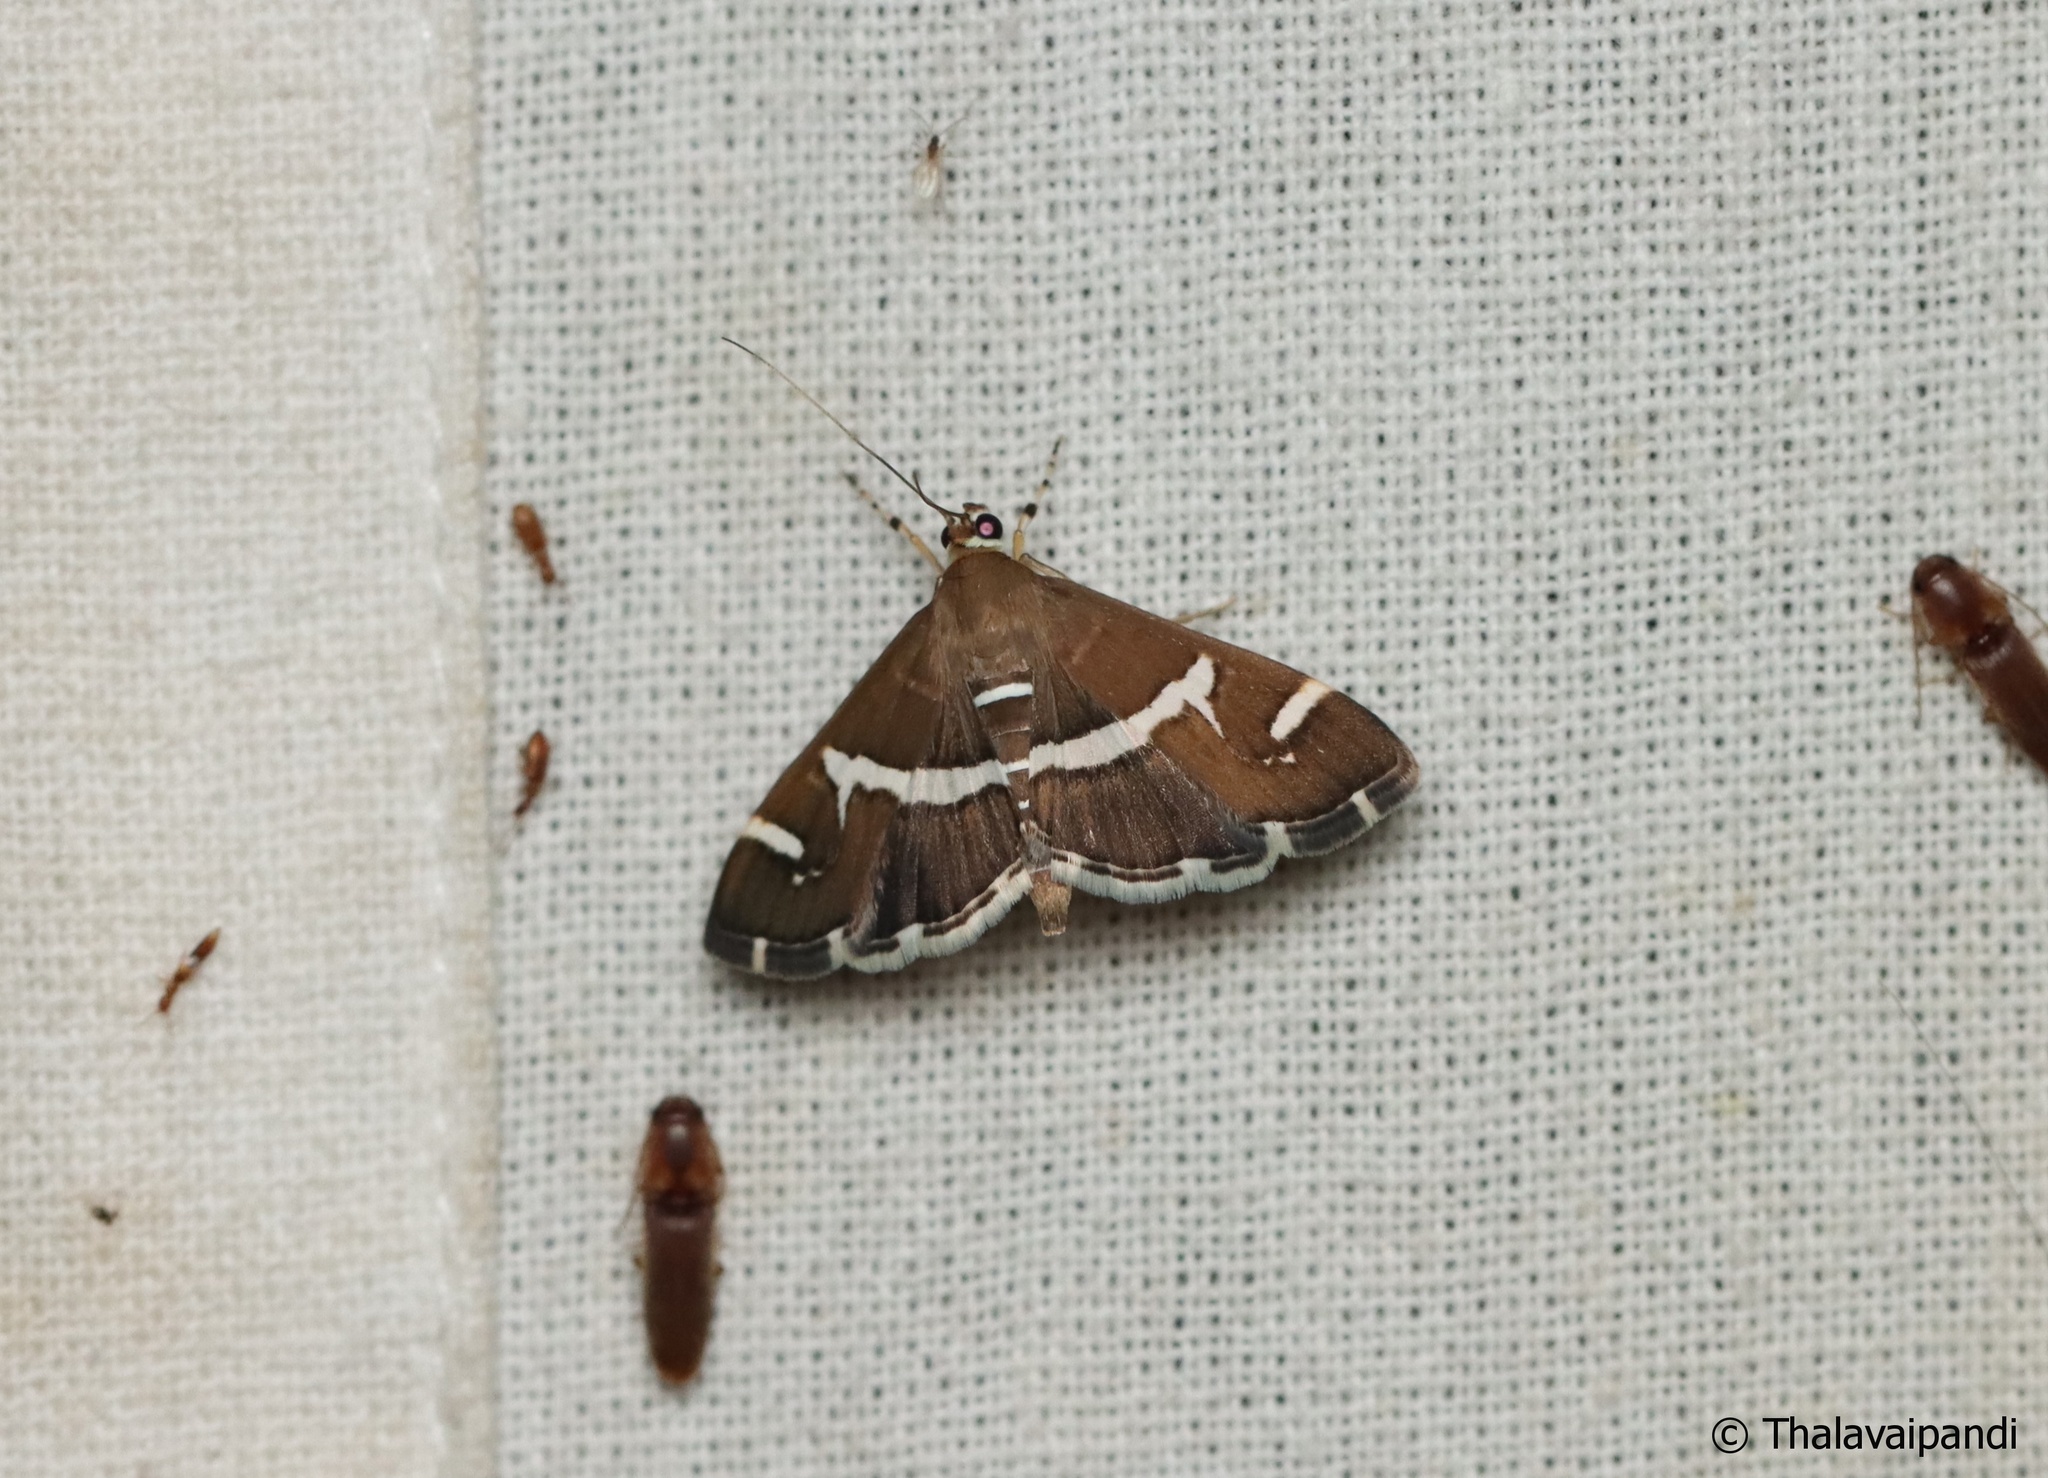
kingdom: Animalia
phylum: Arthropoda
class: Insecta
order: Lepidoptera
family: Crambidae
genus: Spoladea
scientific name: Spoladea recurvalis
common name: Beet webworm moth
